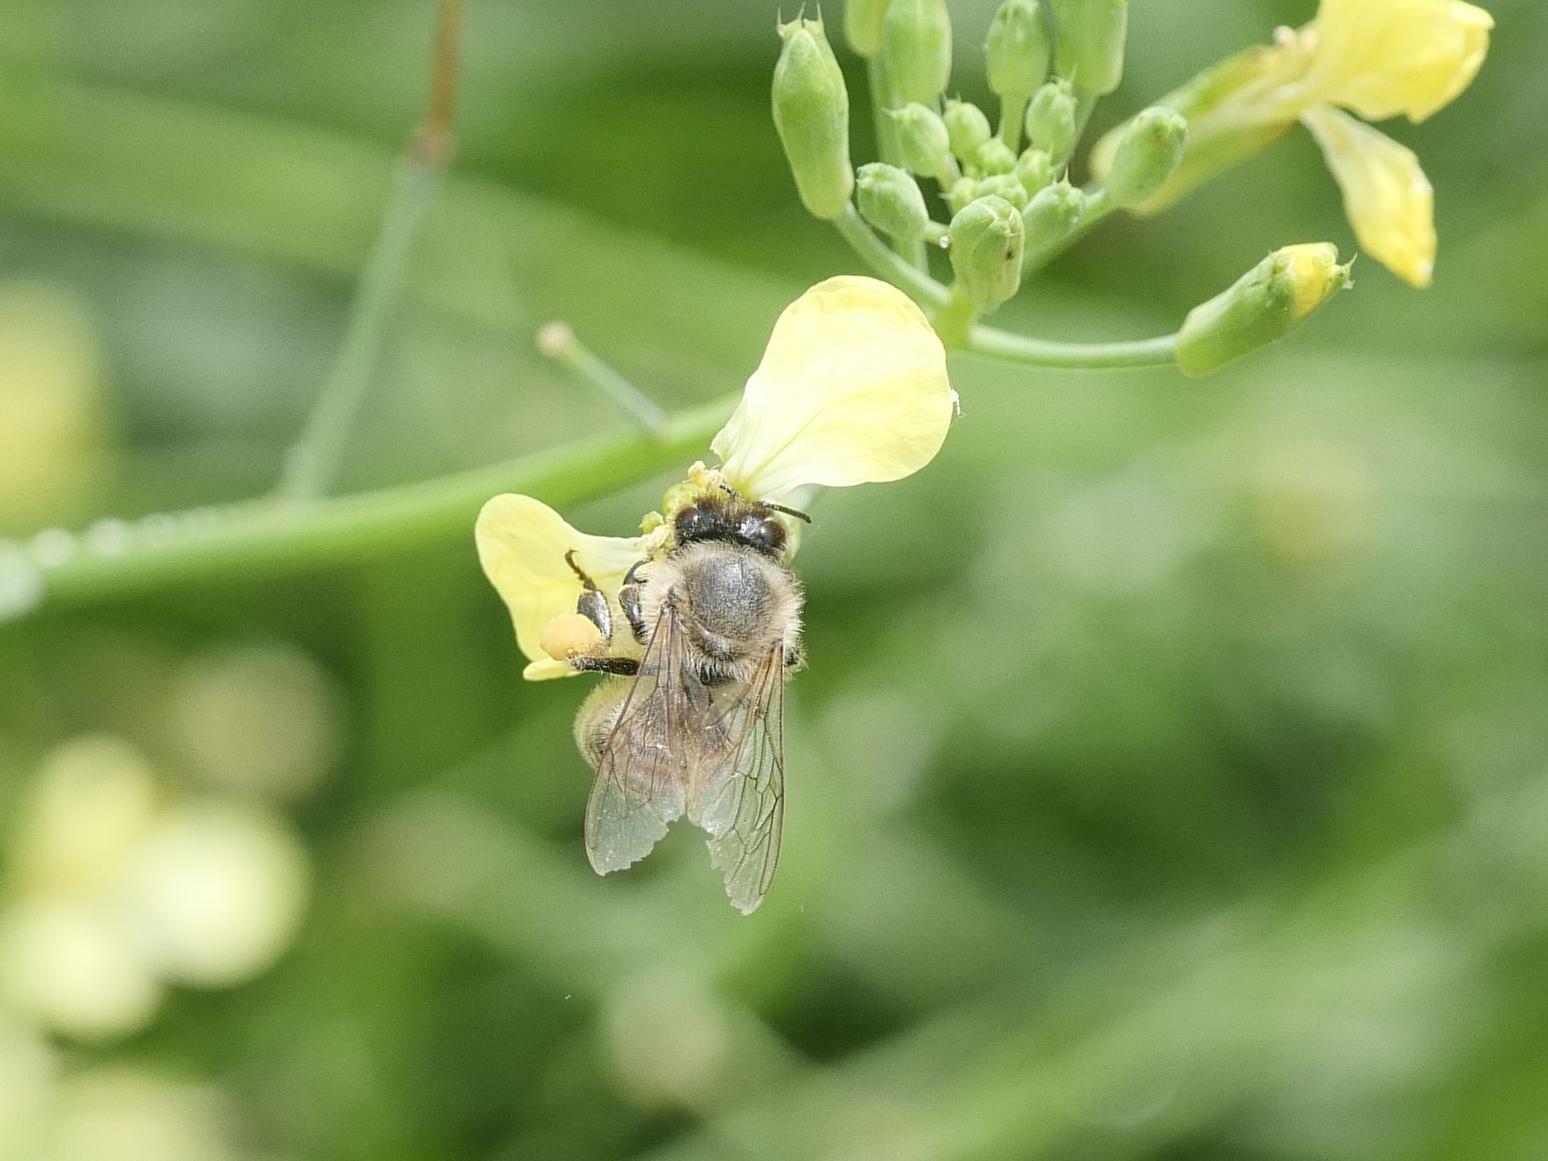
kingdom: Animalia
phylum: Arthropoda
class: Insecta
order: Hymenoptera
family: Apidae
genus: Apis
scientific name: Apis mellifera
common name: Honey bee
